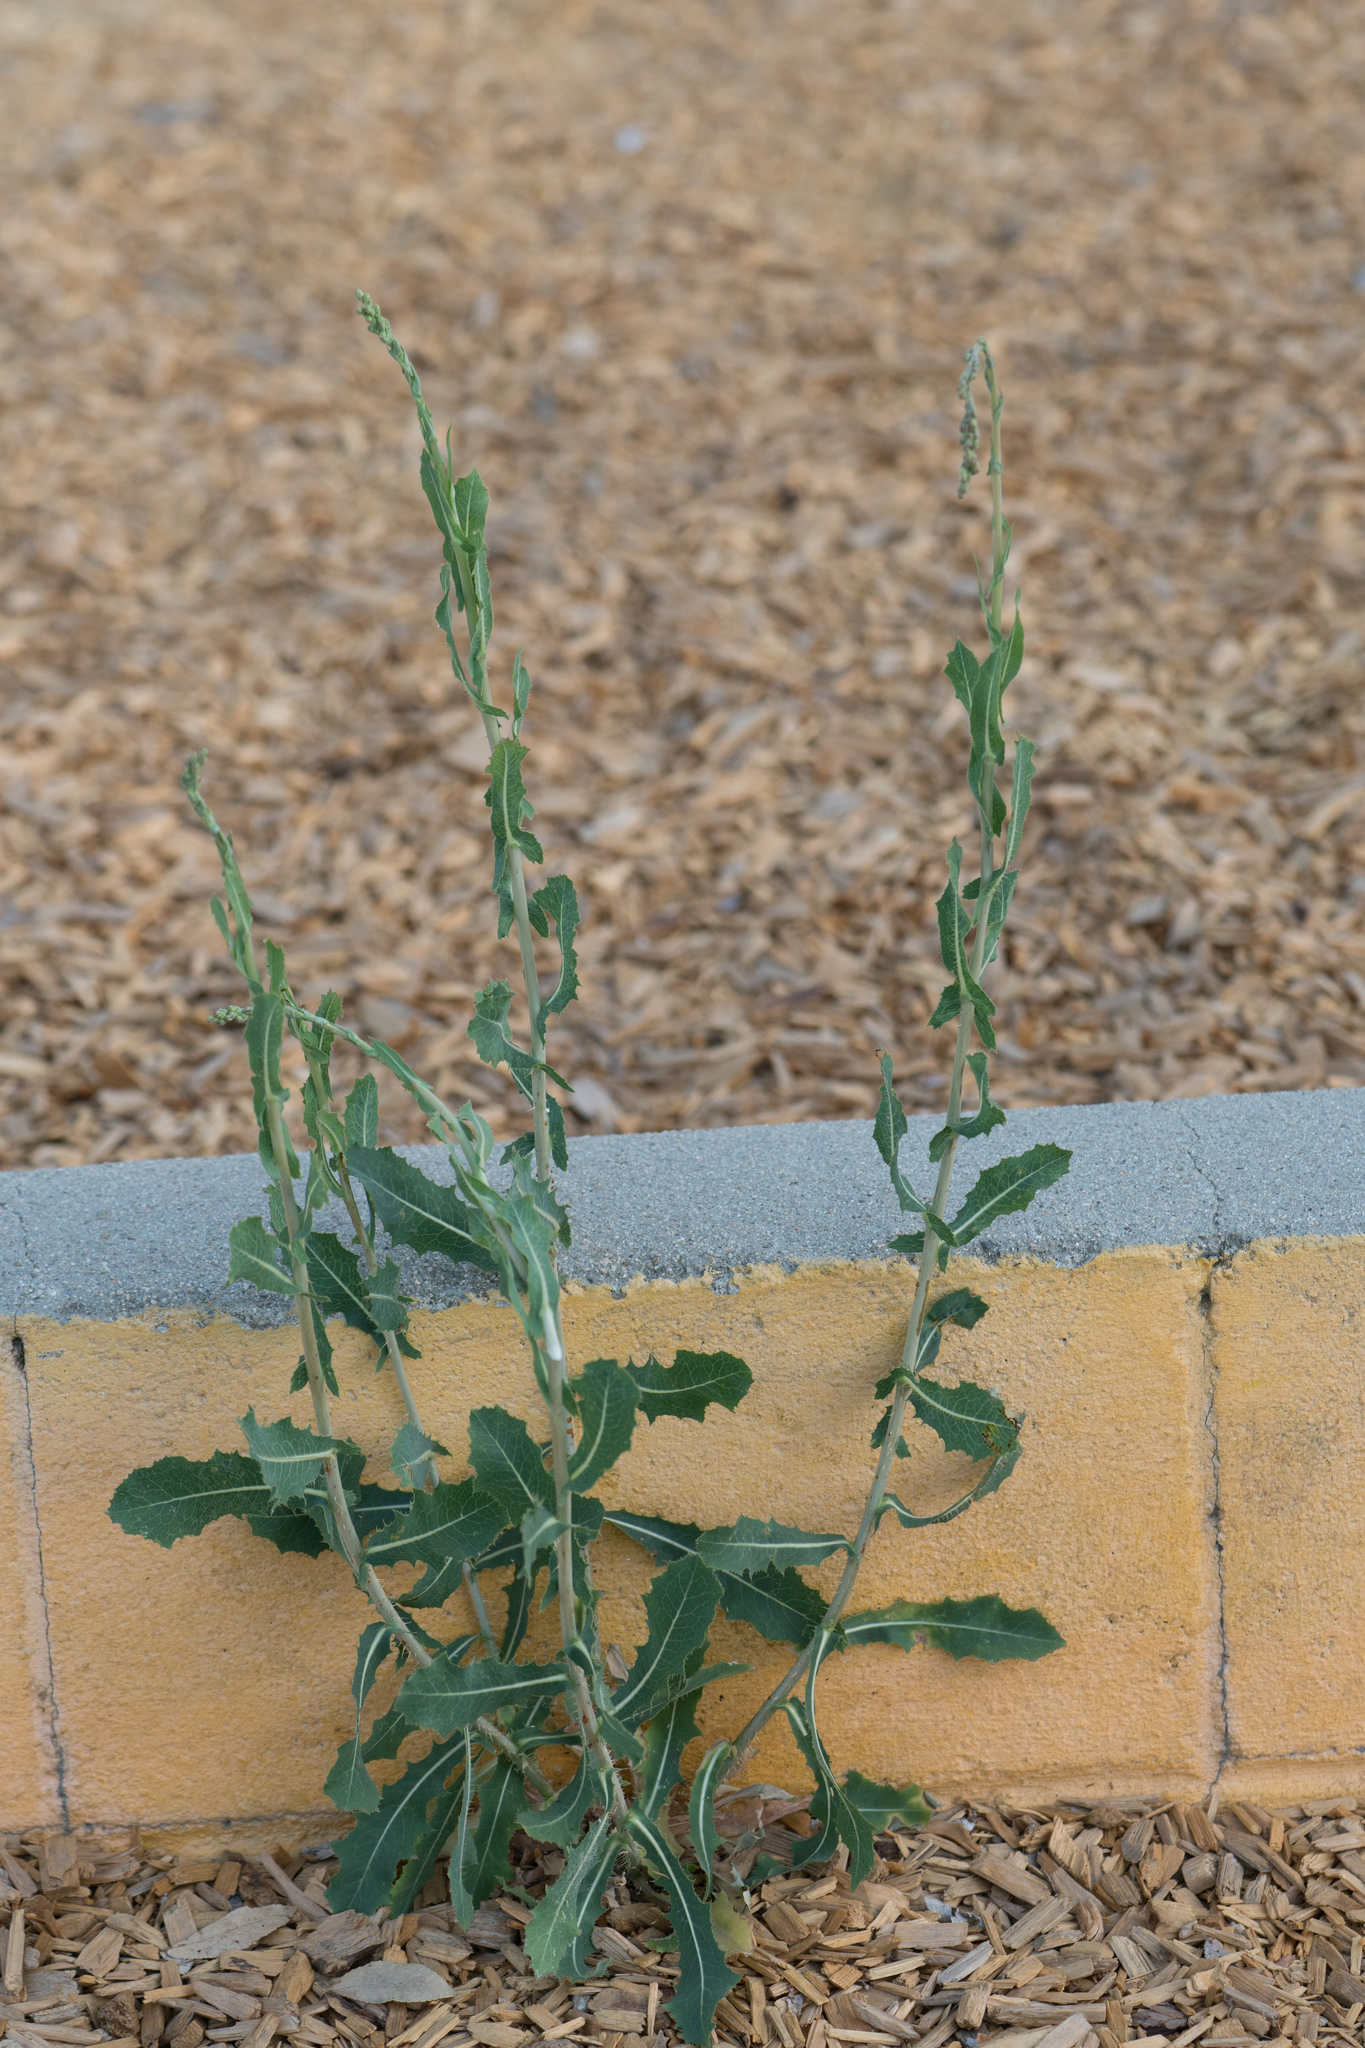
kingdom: Plantae
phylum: Tracheophyta
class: Magnoliopsida
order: Asterales
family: Asteraceae
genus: Lactuca
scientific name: Lactuca serriola
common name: Prickly lettuce
